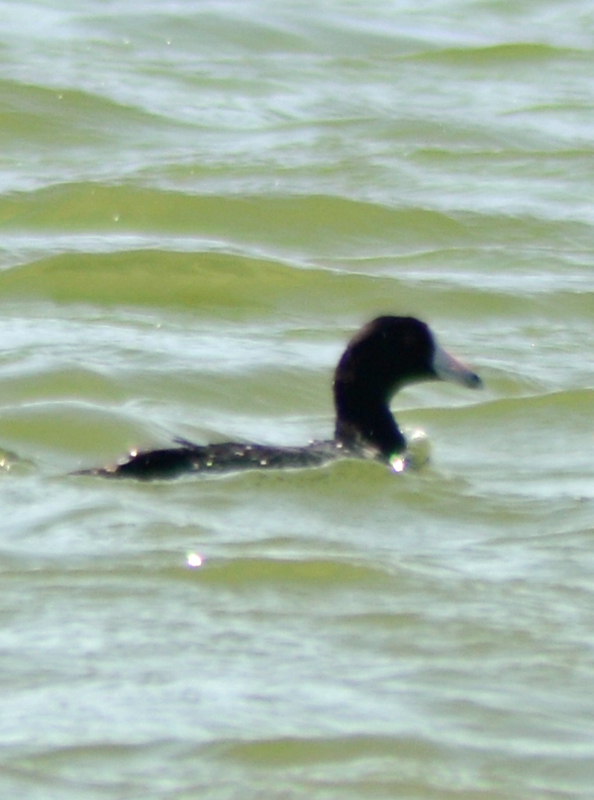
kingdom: Animalia
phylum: Chordata
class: Aves
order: Gruiformes
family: Rallidae
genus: Fulica
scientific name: Fulica americana
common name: American coot
